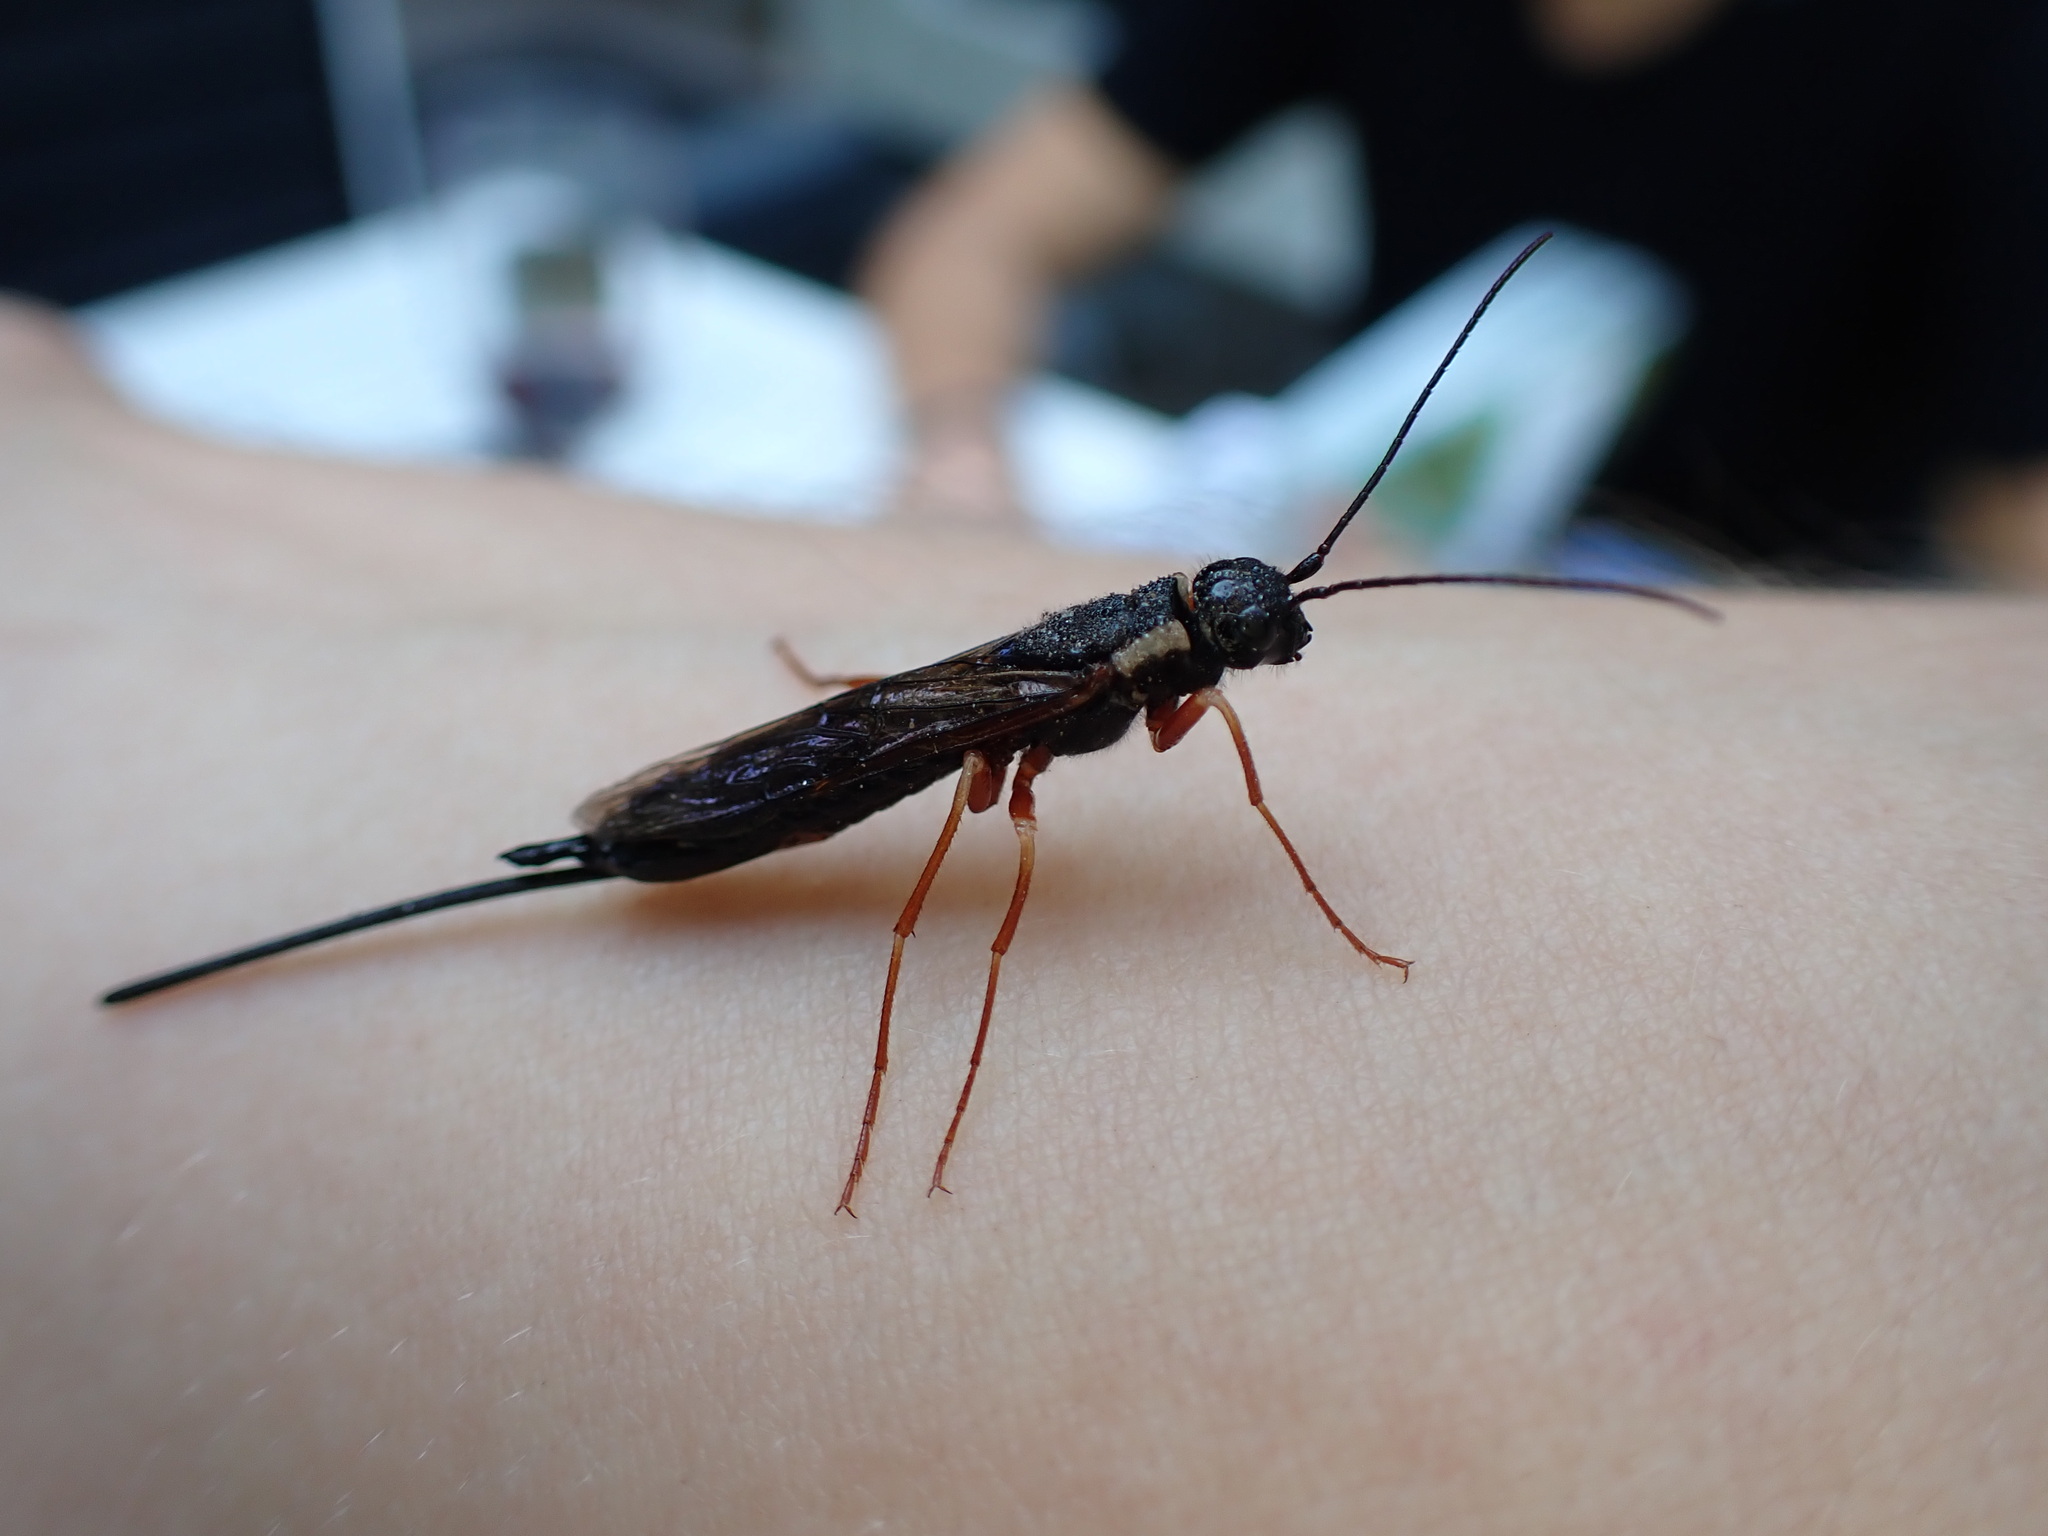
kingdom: Animalia
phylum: Arthropoda
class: Insecta
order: Hymenoptera
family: Siricidae
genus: Xeris
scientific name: Xeris pallicoxae
